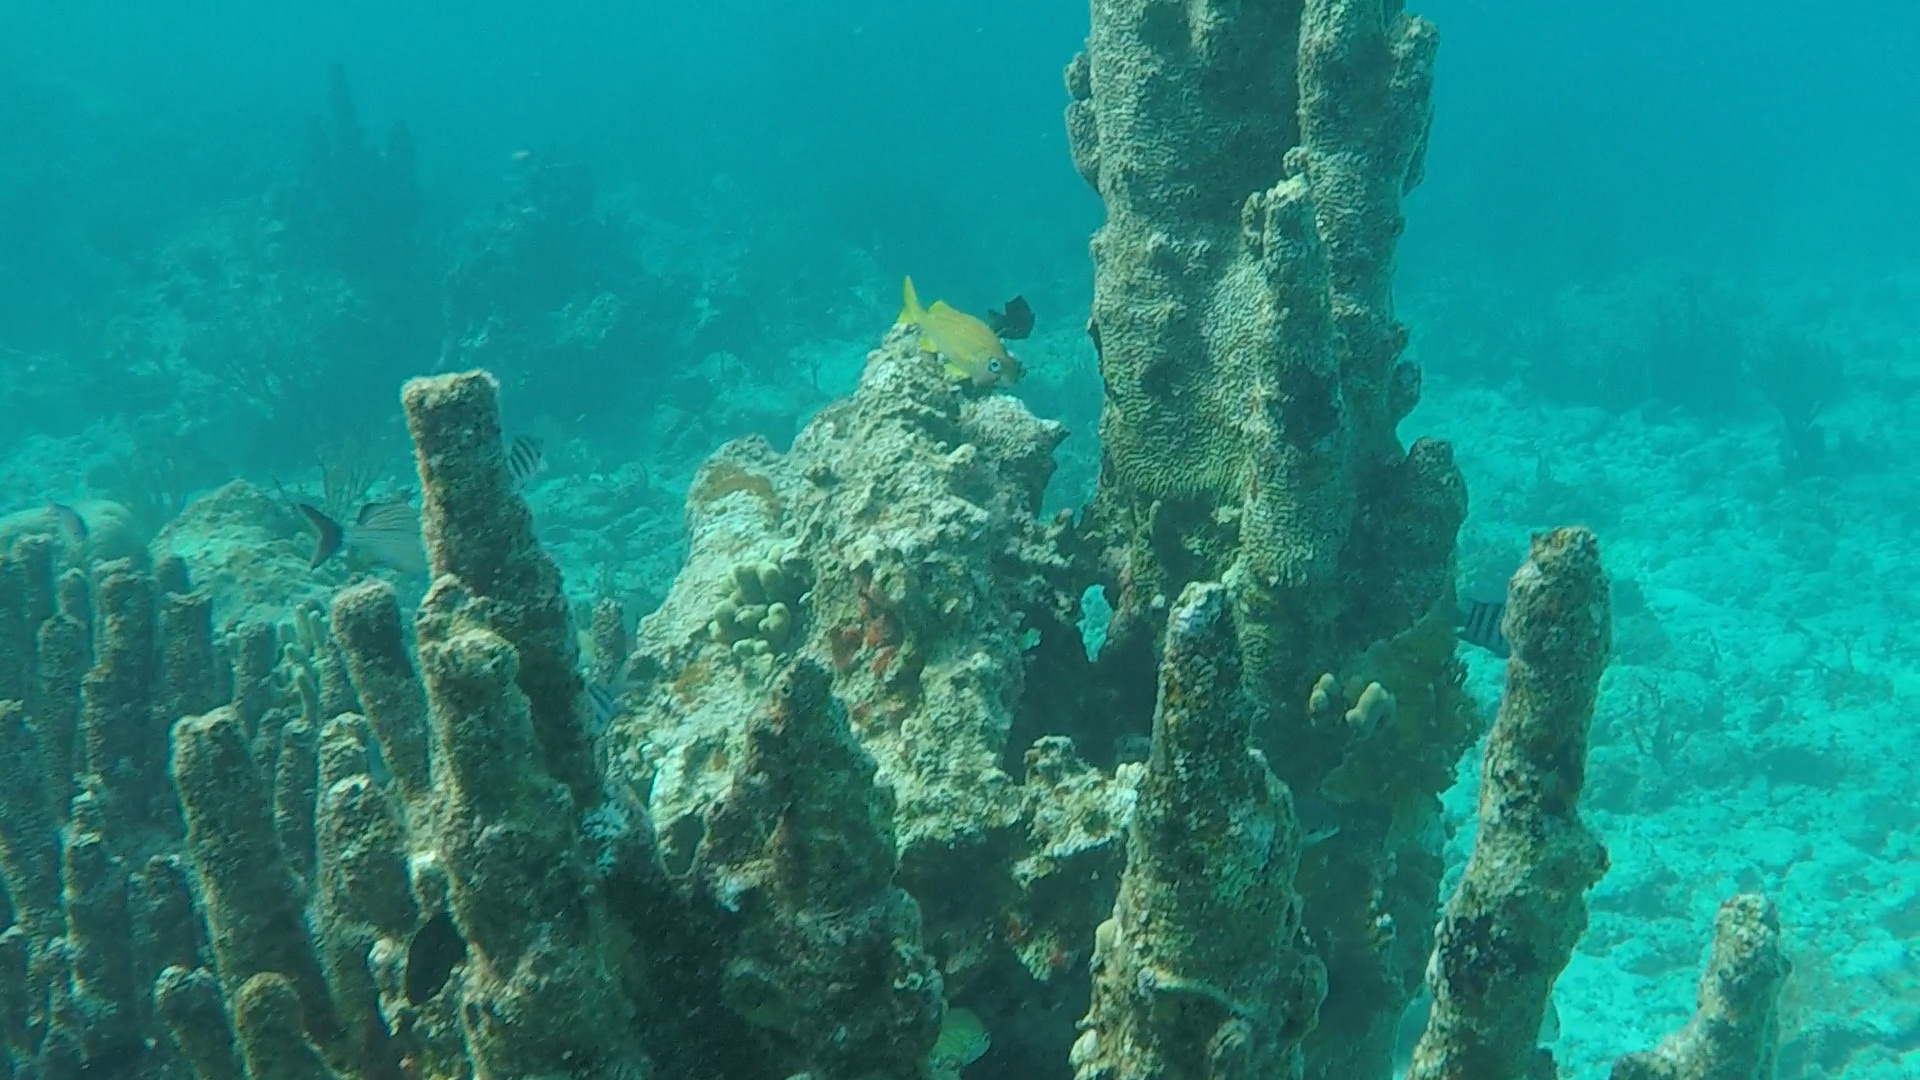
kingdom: Animalia
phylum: Cnidaria
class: Anthozoa
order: Scleractinia
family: Meandrinidae
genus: Dendrogyra
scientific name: Dendrogyra cylindrus
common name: Pillar coral
